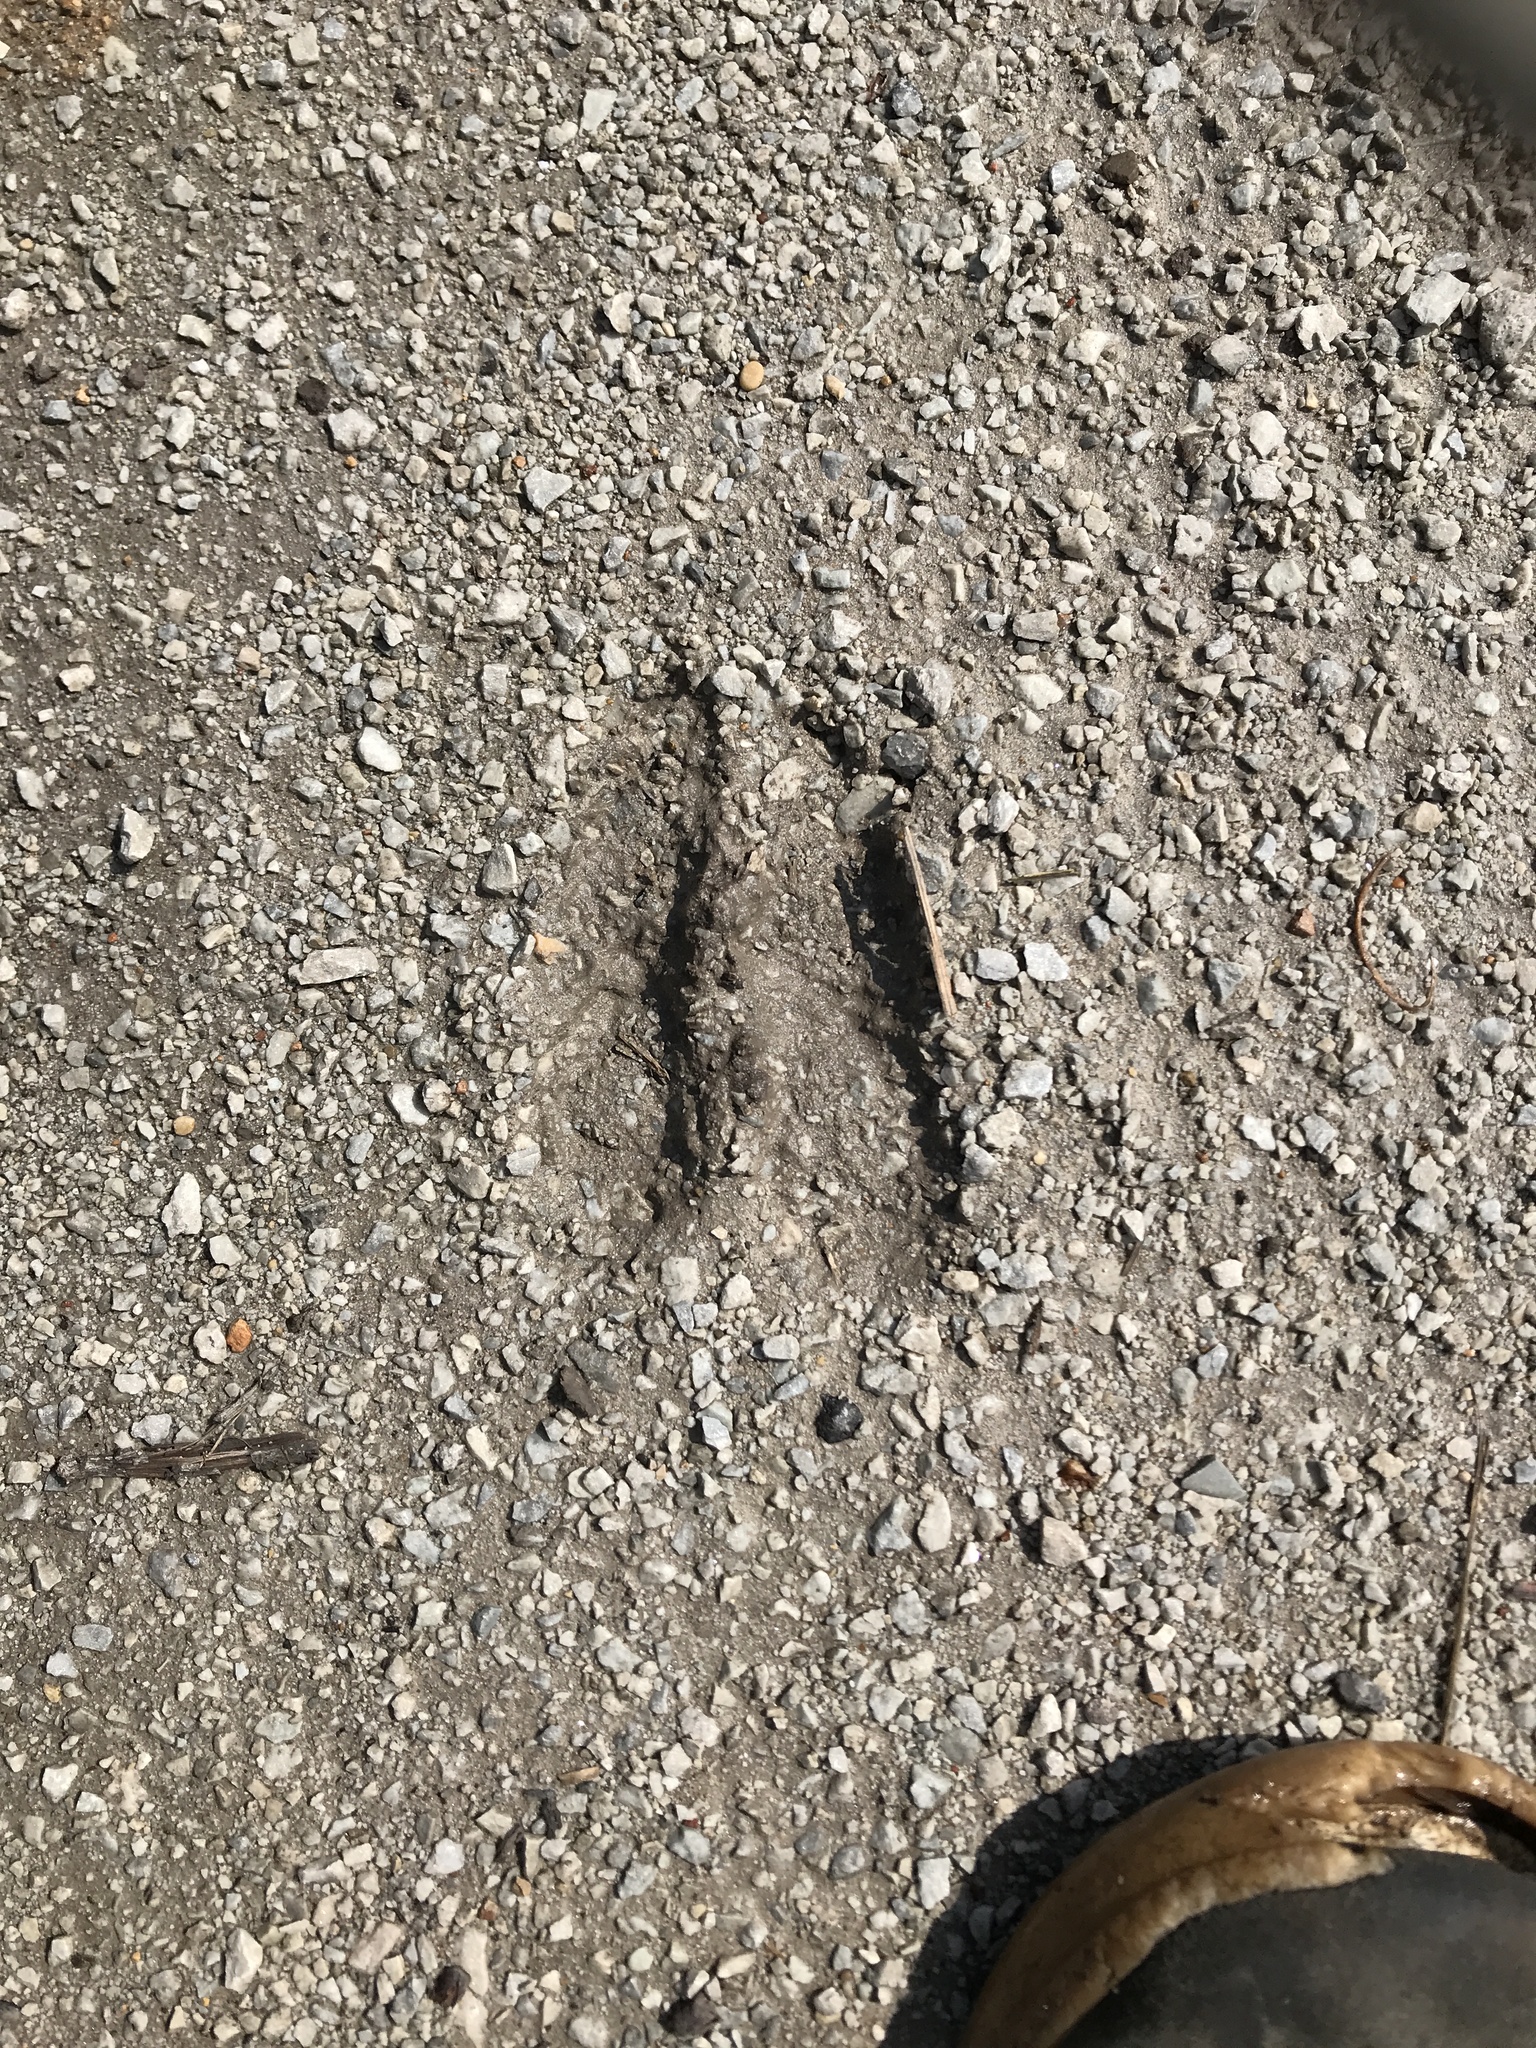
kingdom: Animalia
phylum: Chordata
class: Mammalia
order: Artiodactyla
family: Cervidae
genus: Odocoileus
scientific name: Odocoileus virginianus
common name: White-tailed deer
